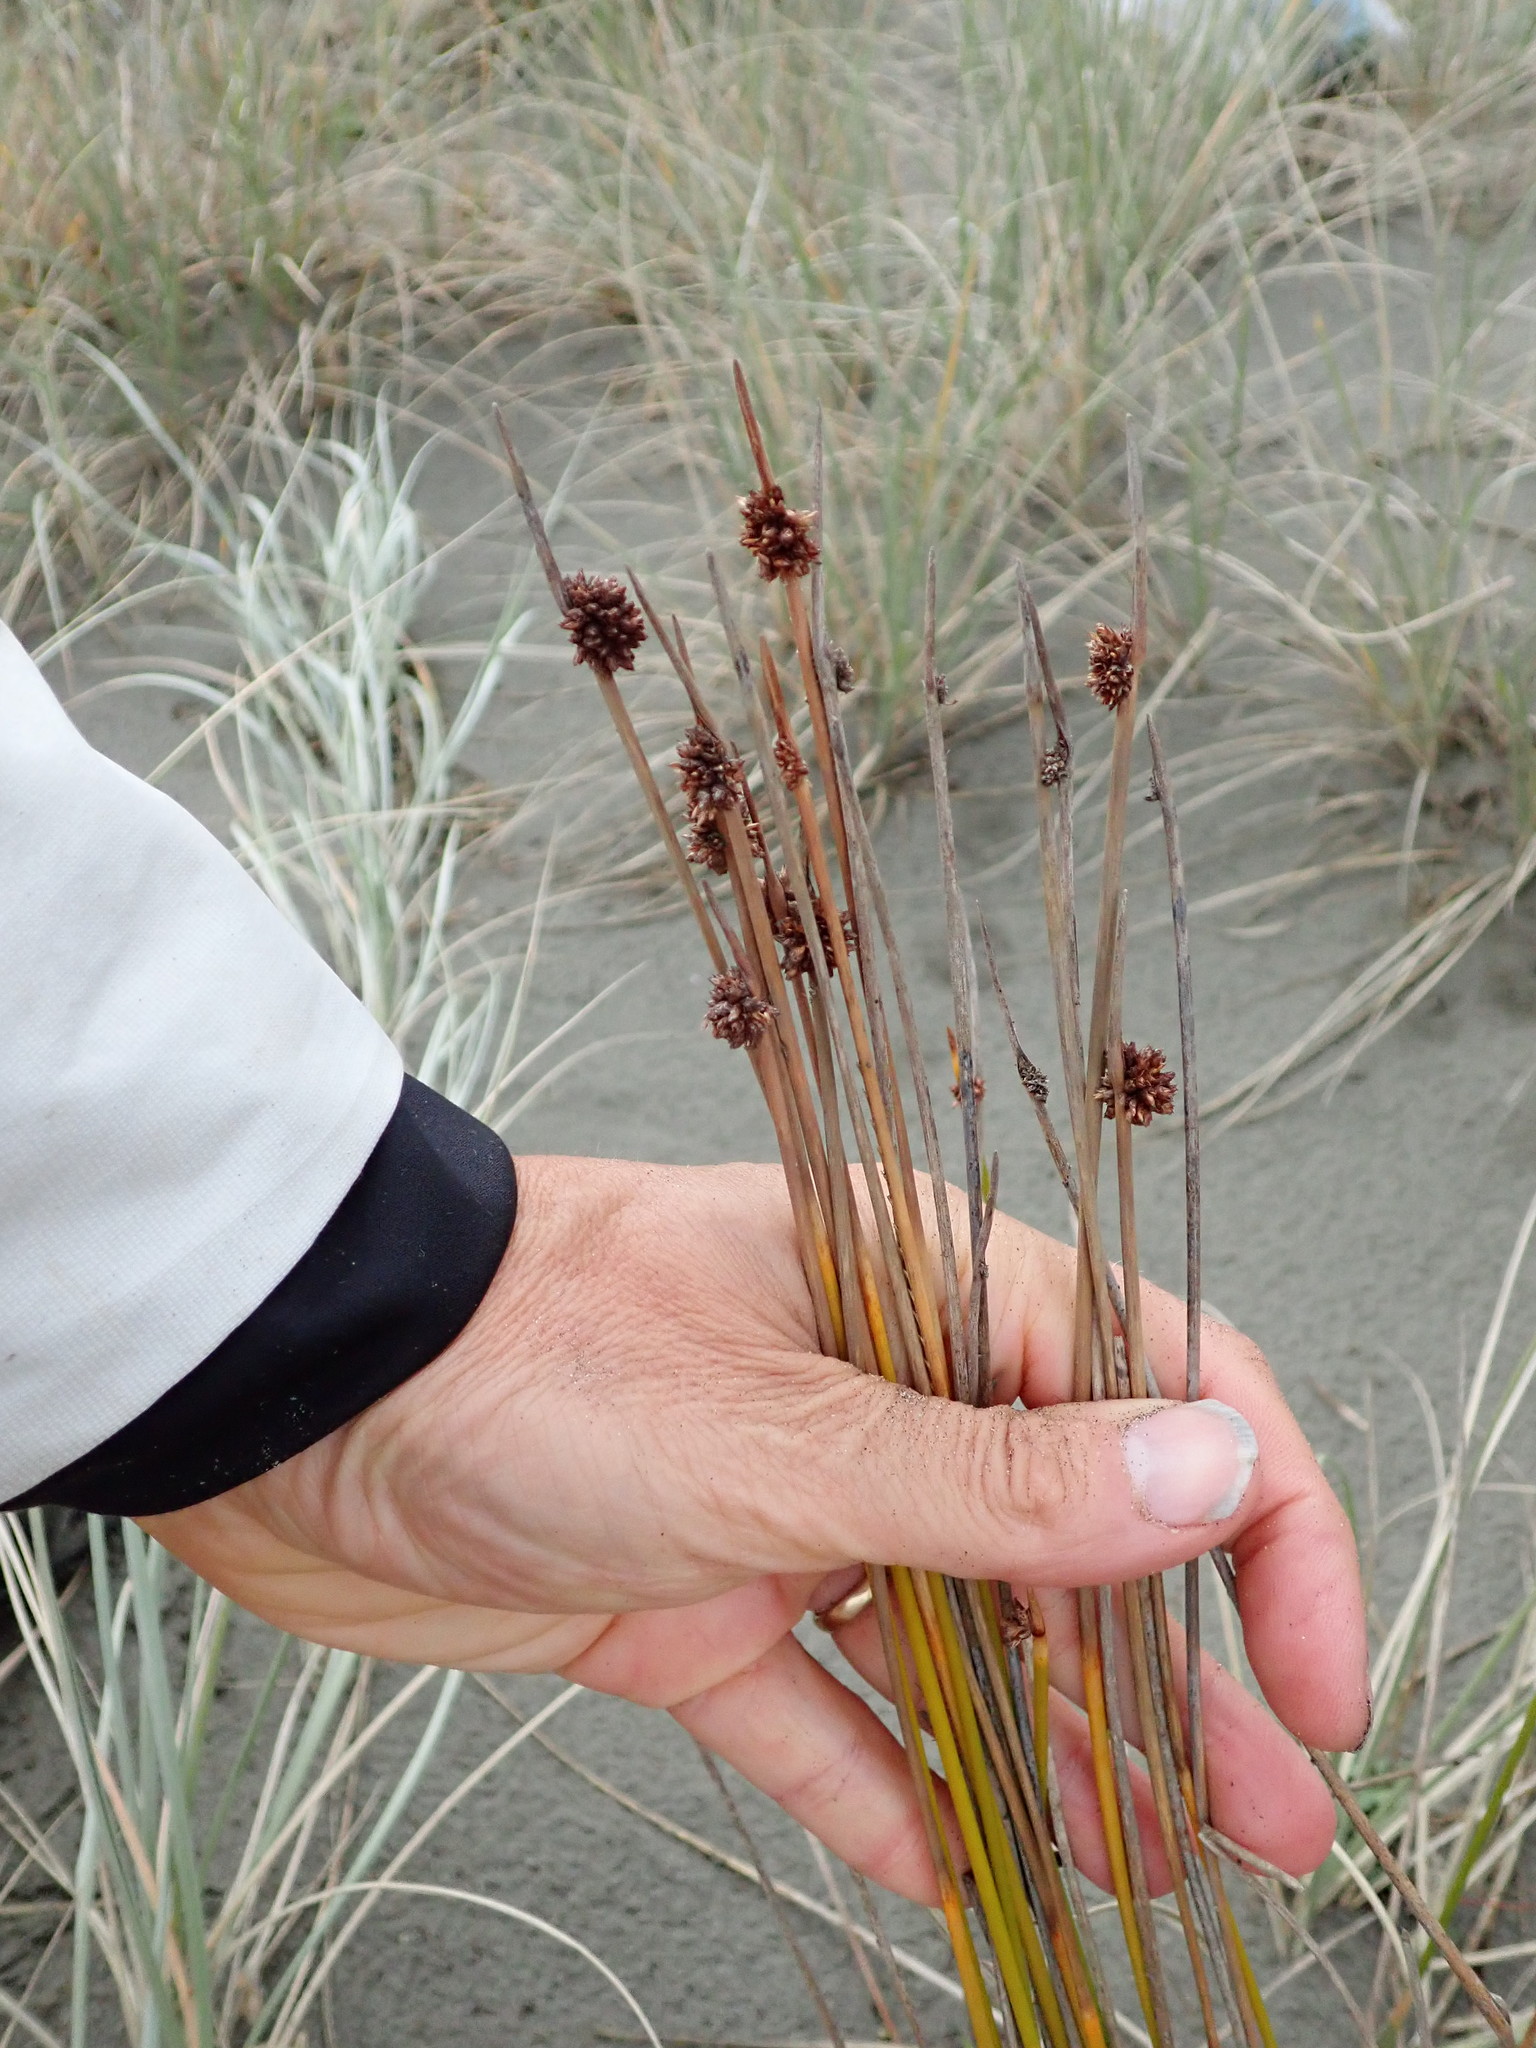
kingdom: Plantae
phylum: Tracheophyta
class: Liliopsida
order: Poales
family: Cyperaceae
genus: Ficinia
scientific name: Ficinia nodosa
